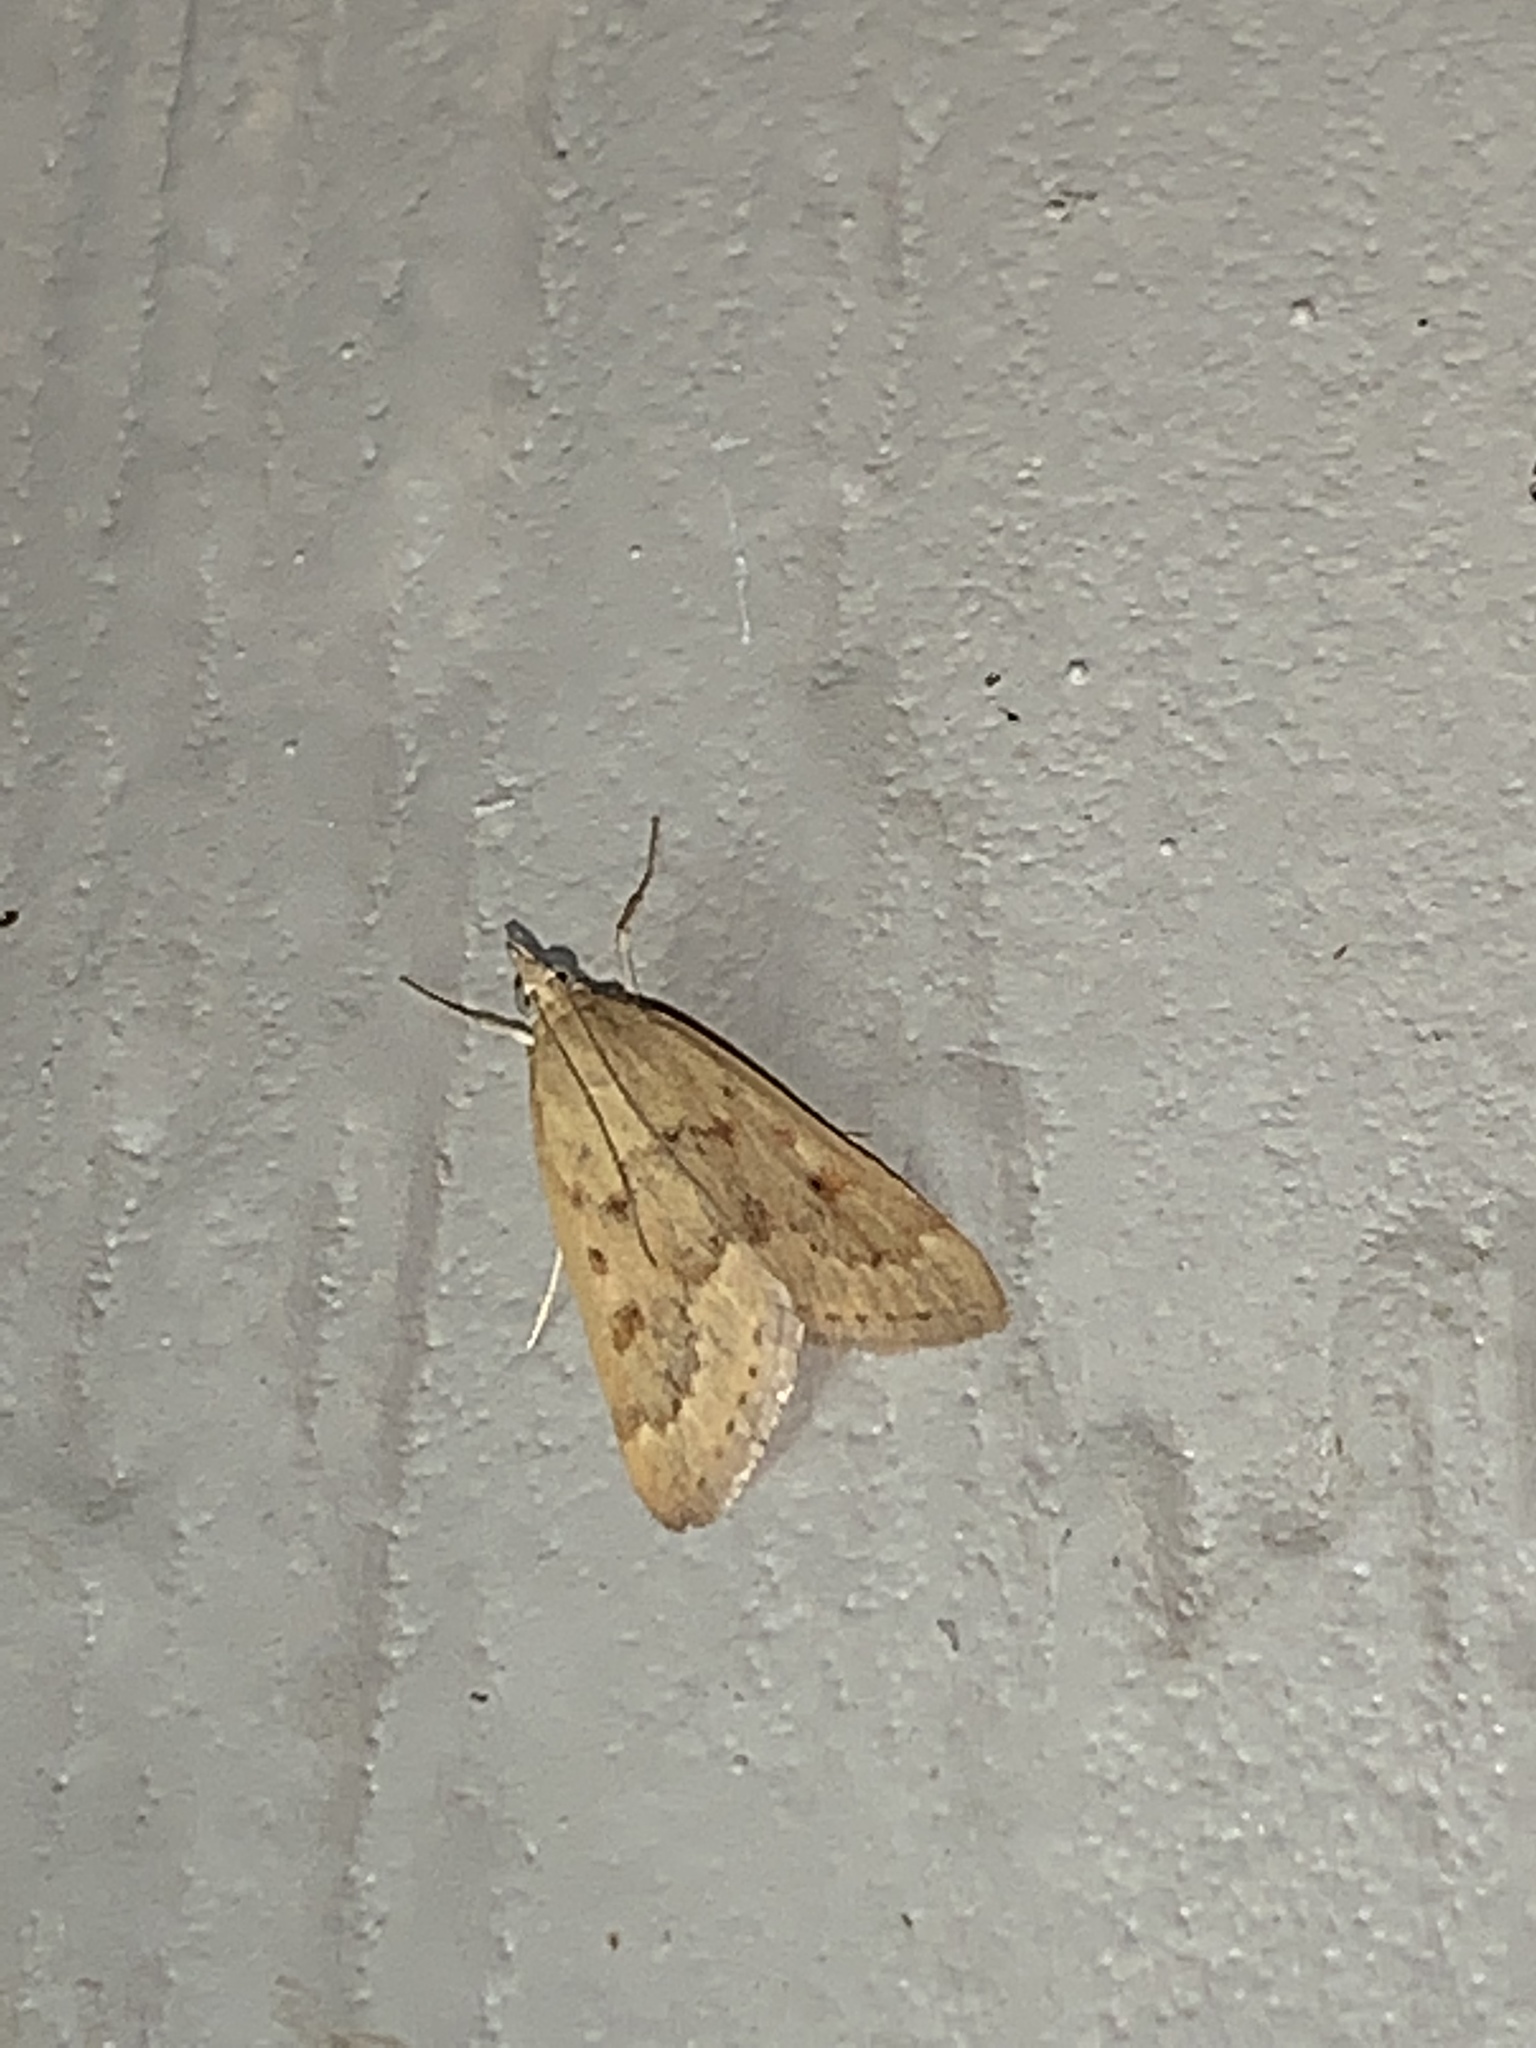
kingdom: Animalia
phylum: Arthropoda
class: Insecta
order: Lepidoptera
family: Crambidae
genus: Achyra
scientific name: Achyra rantalis
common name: Garden webworm
